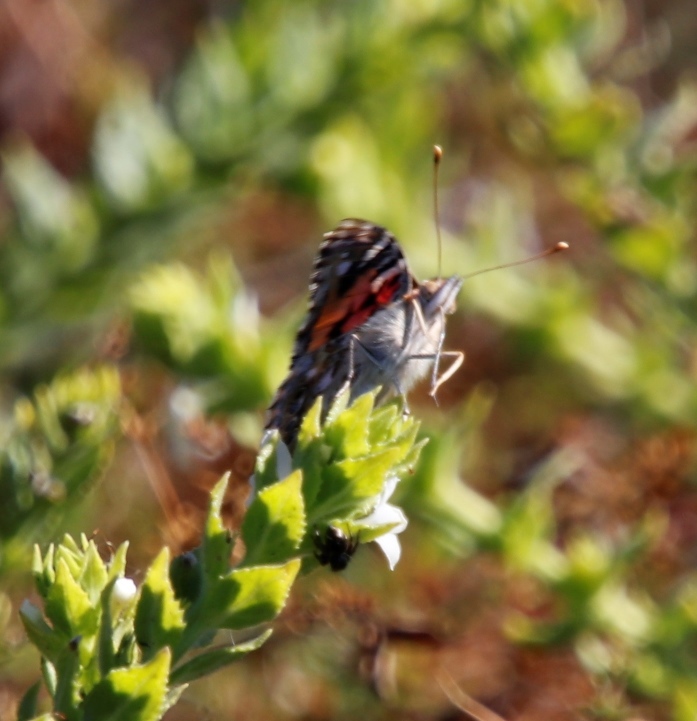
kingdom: Animalia
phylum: Arthropoda
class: Insecta
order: Lepidoptera
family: Nymphalidae
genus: Vanessa
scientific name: Vanessa cardui
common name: Painted lady
